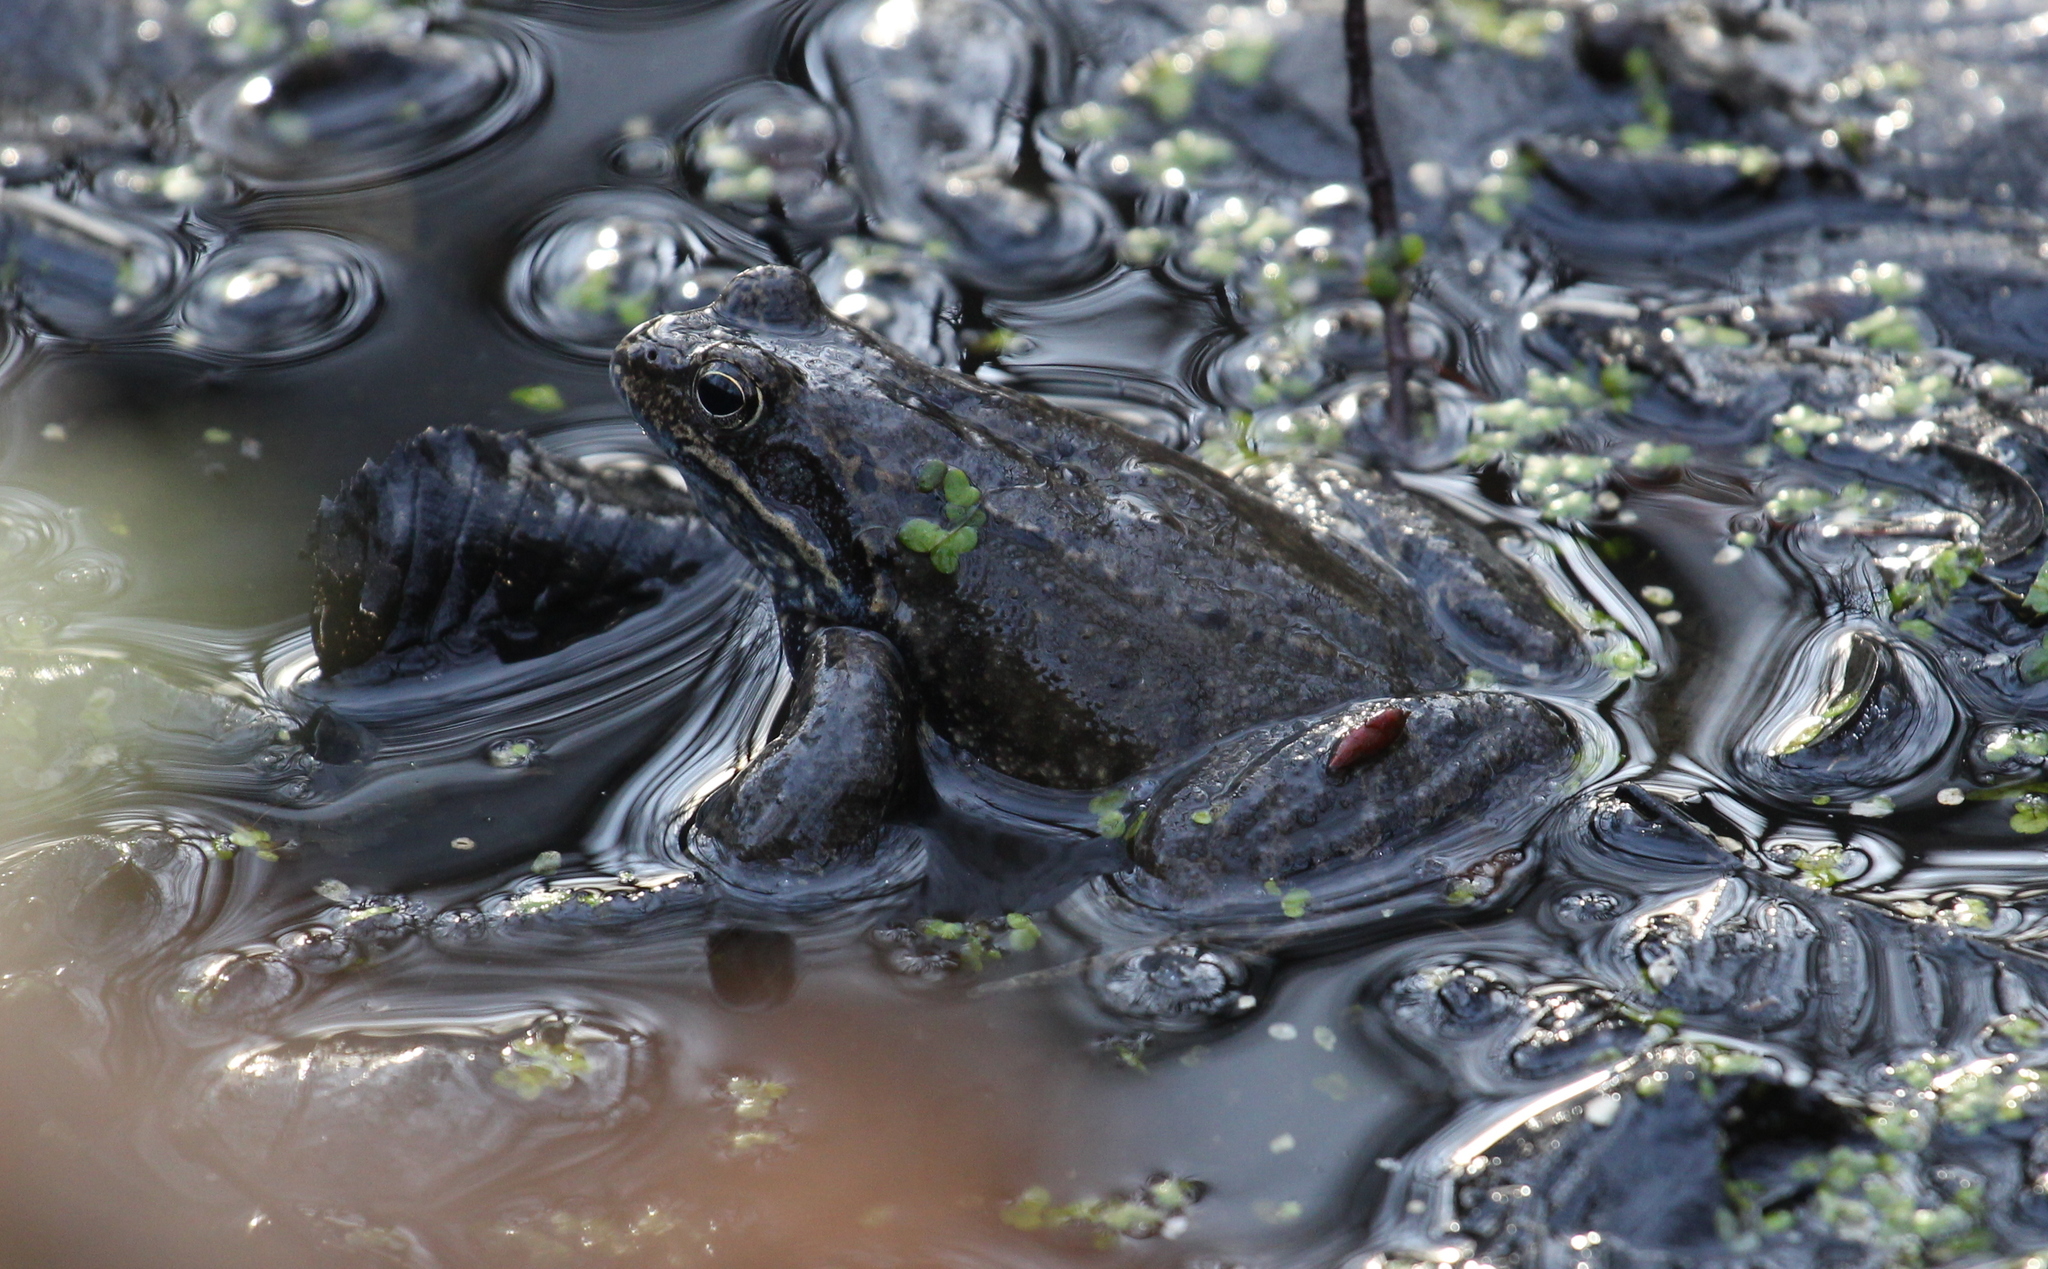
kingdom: Animalia
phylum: Chordata
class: Amphibia
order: Anura
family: Ranidae
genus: Rana
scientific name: Rana temporaria
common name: Common frog
